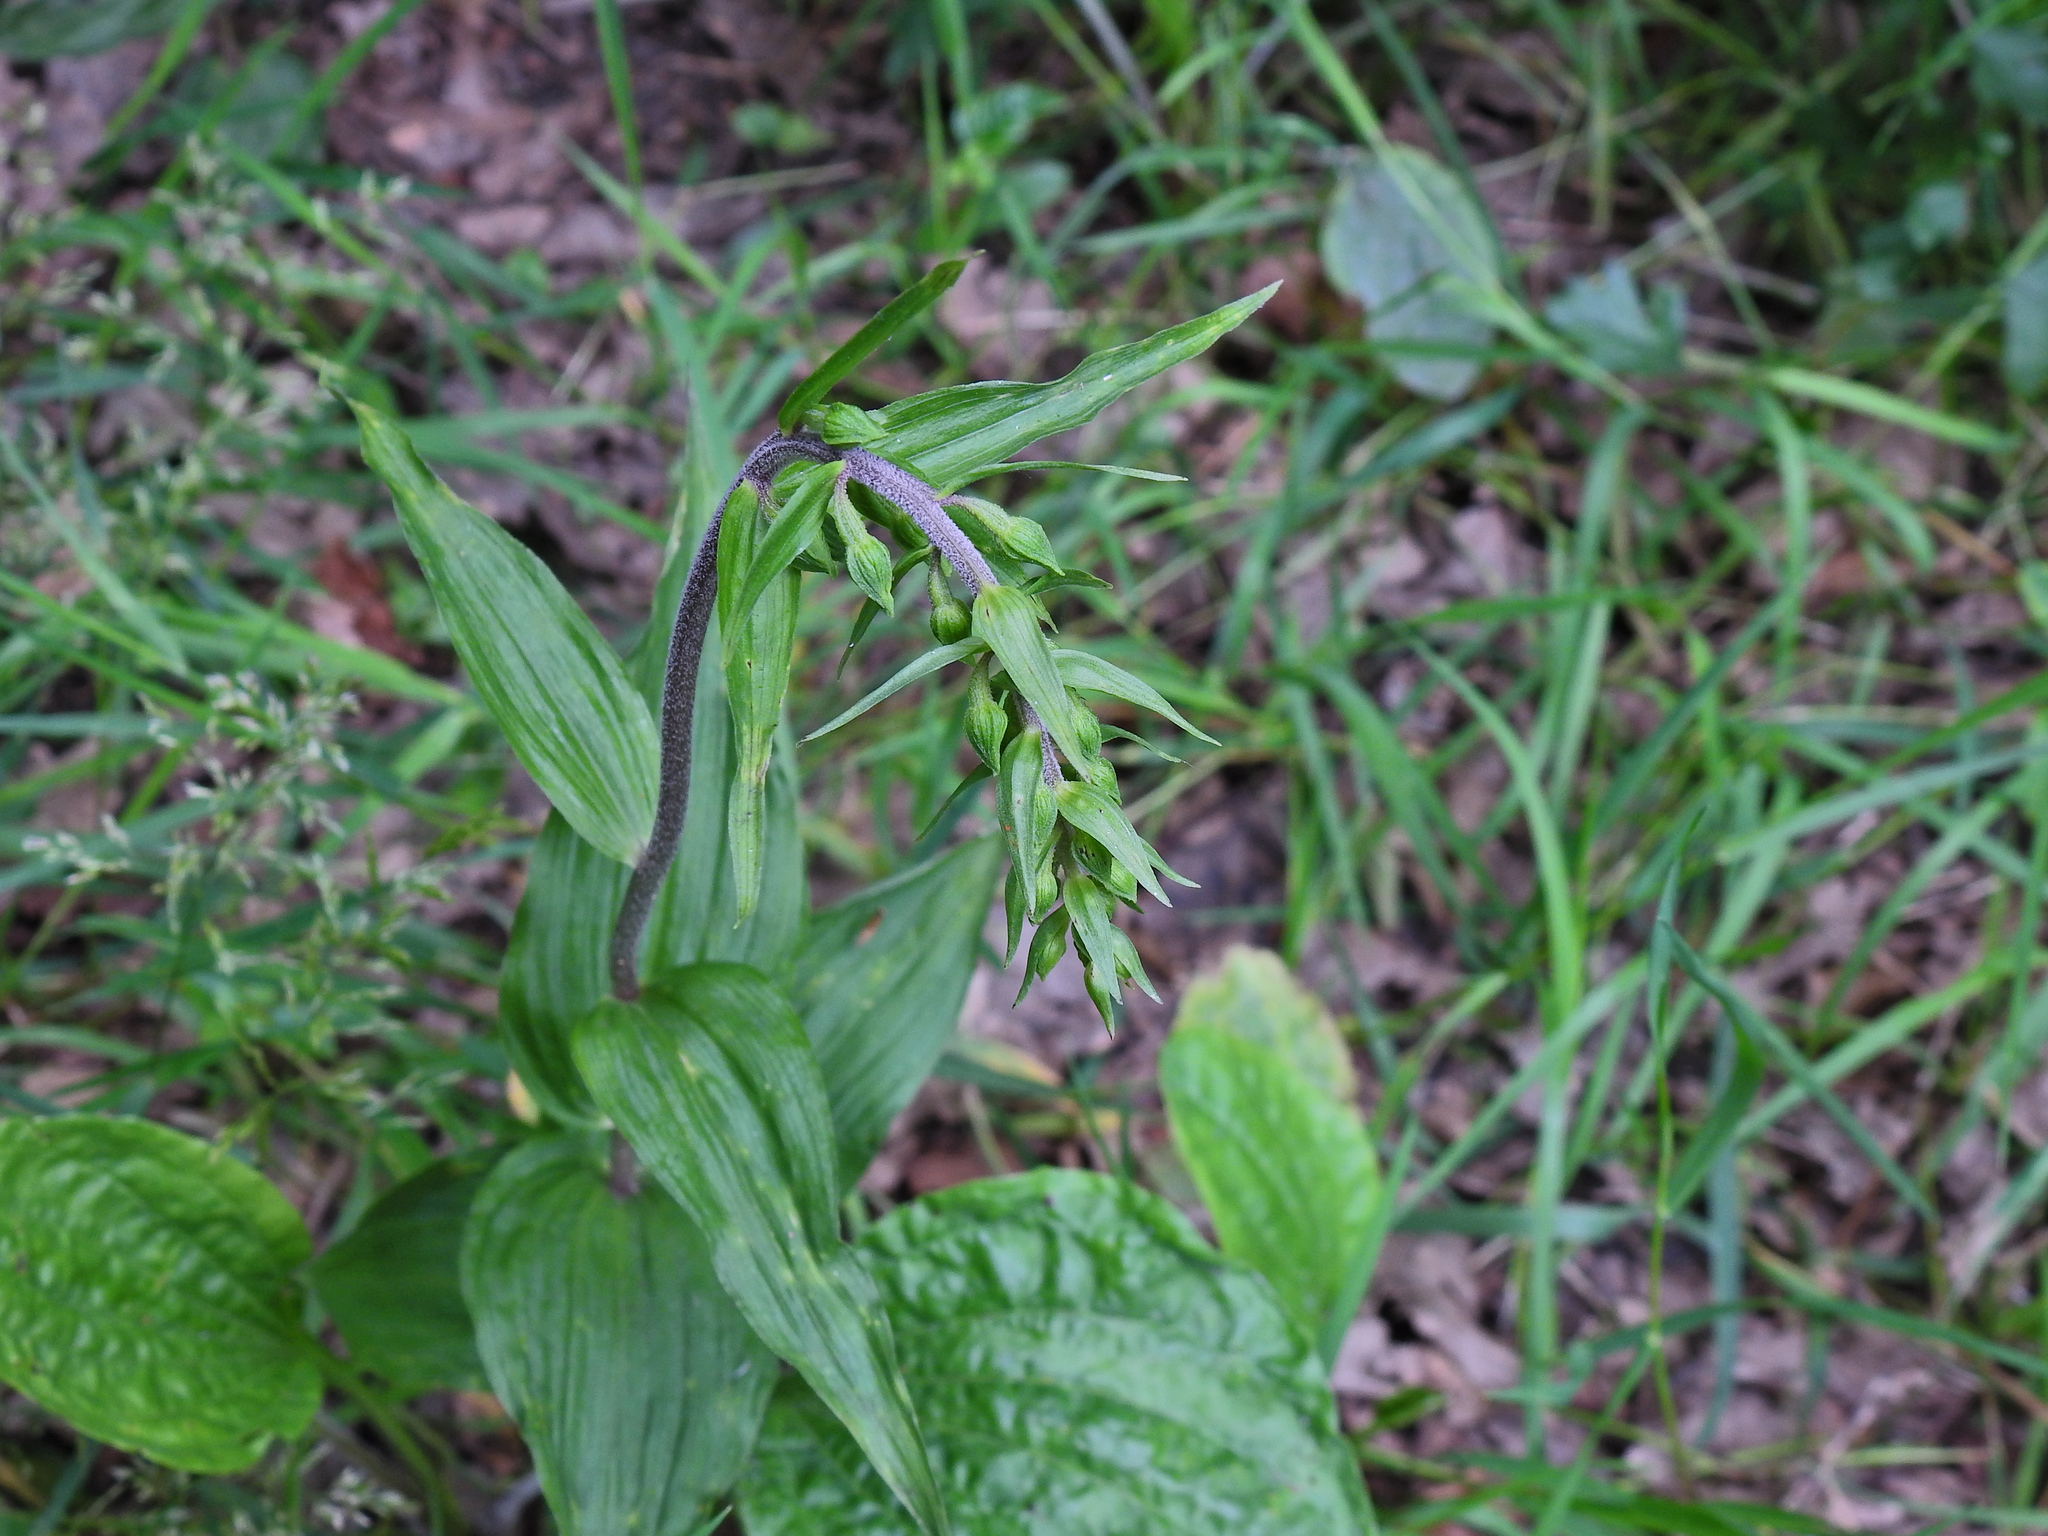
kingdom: Plantae
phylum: Tracheophyta
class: Liliopsida
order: Asparagales
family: Orchidaceae
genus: Epipactis
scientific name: Epipactis helleborine
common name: Broad-leaved helleborine
